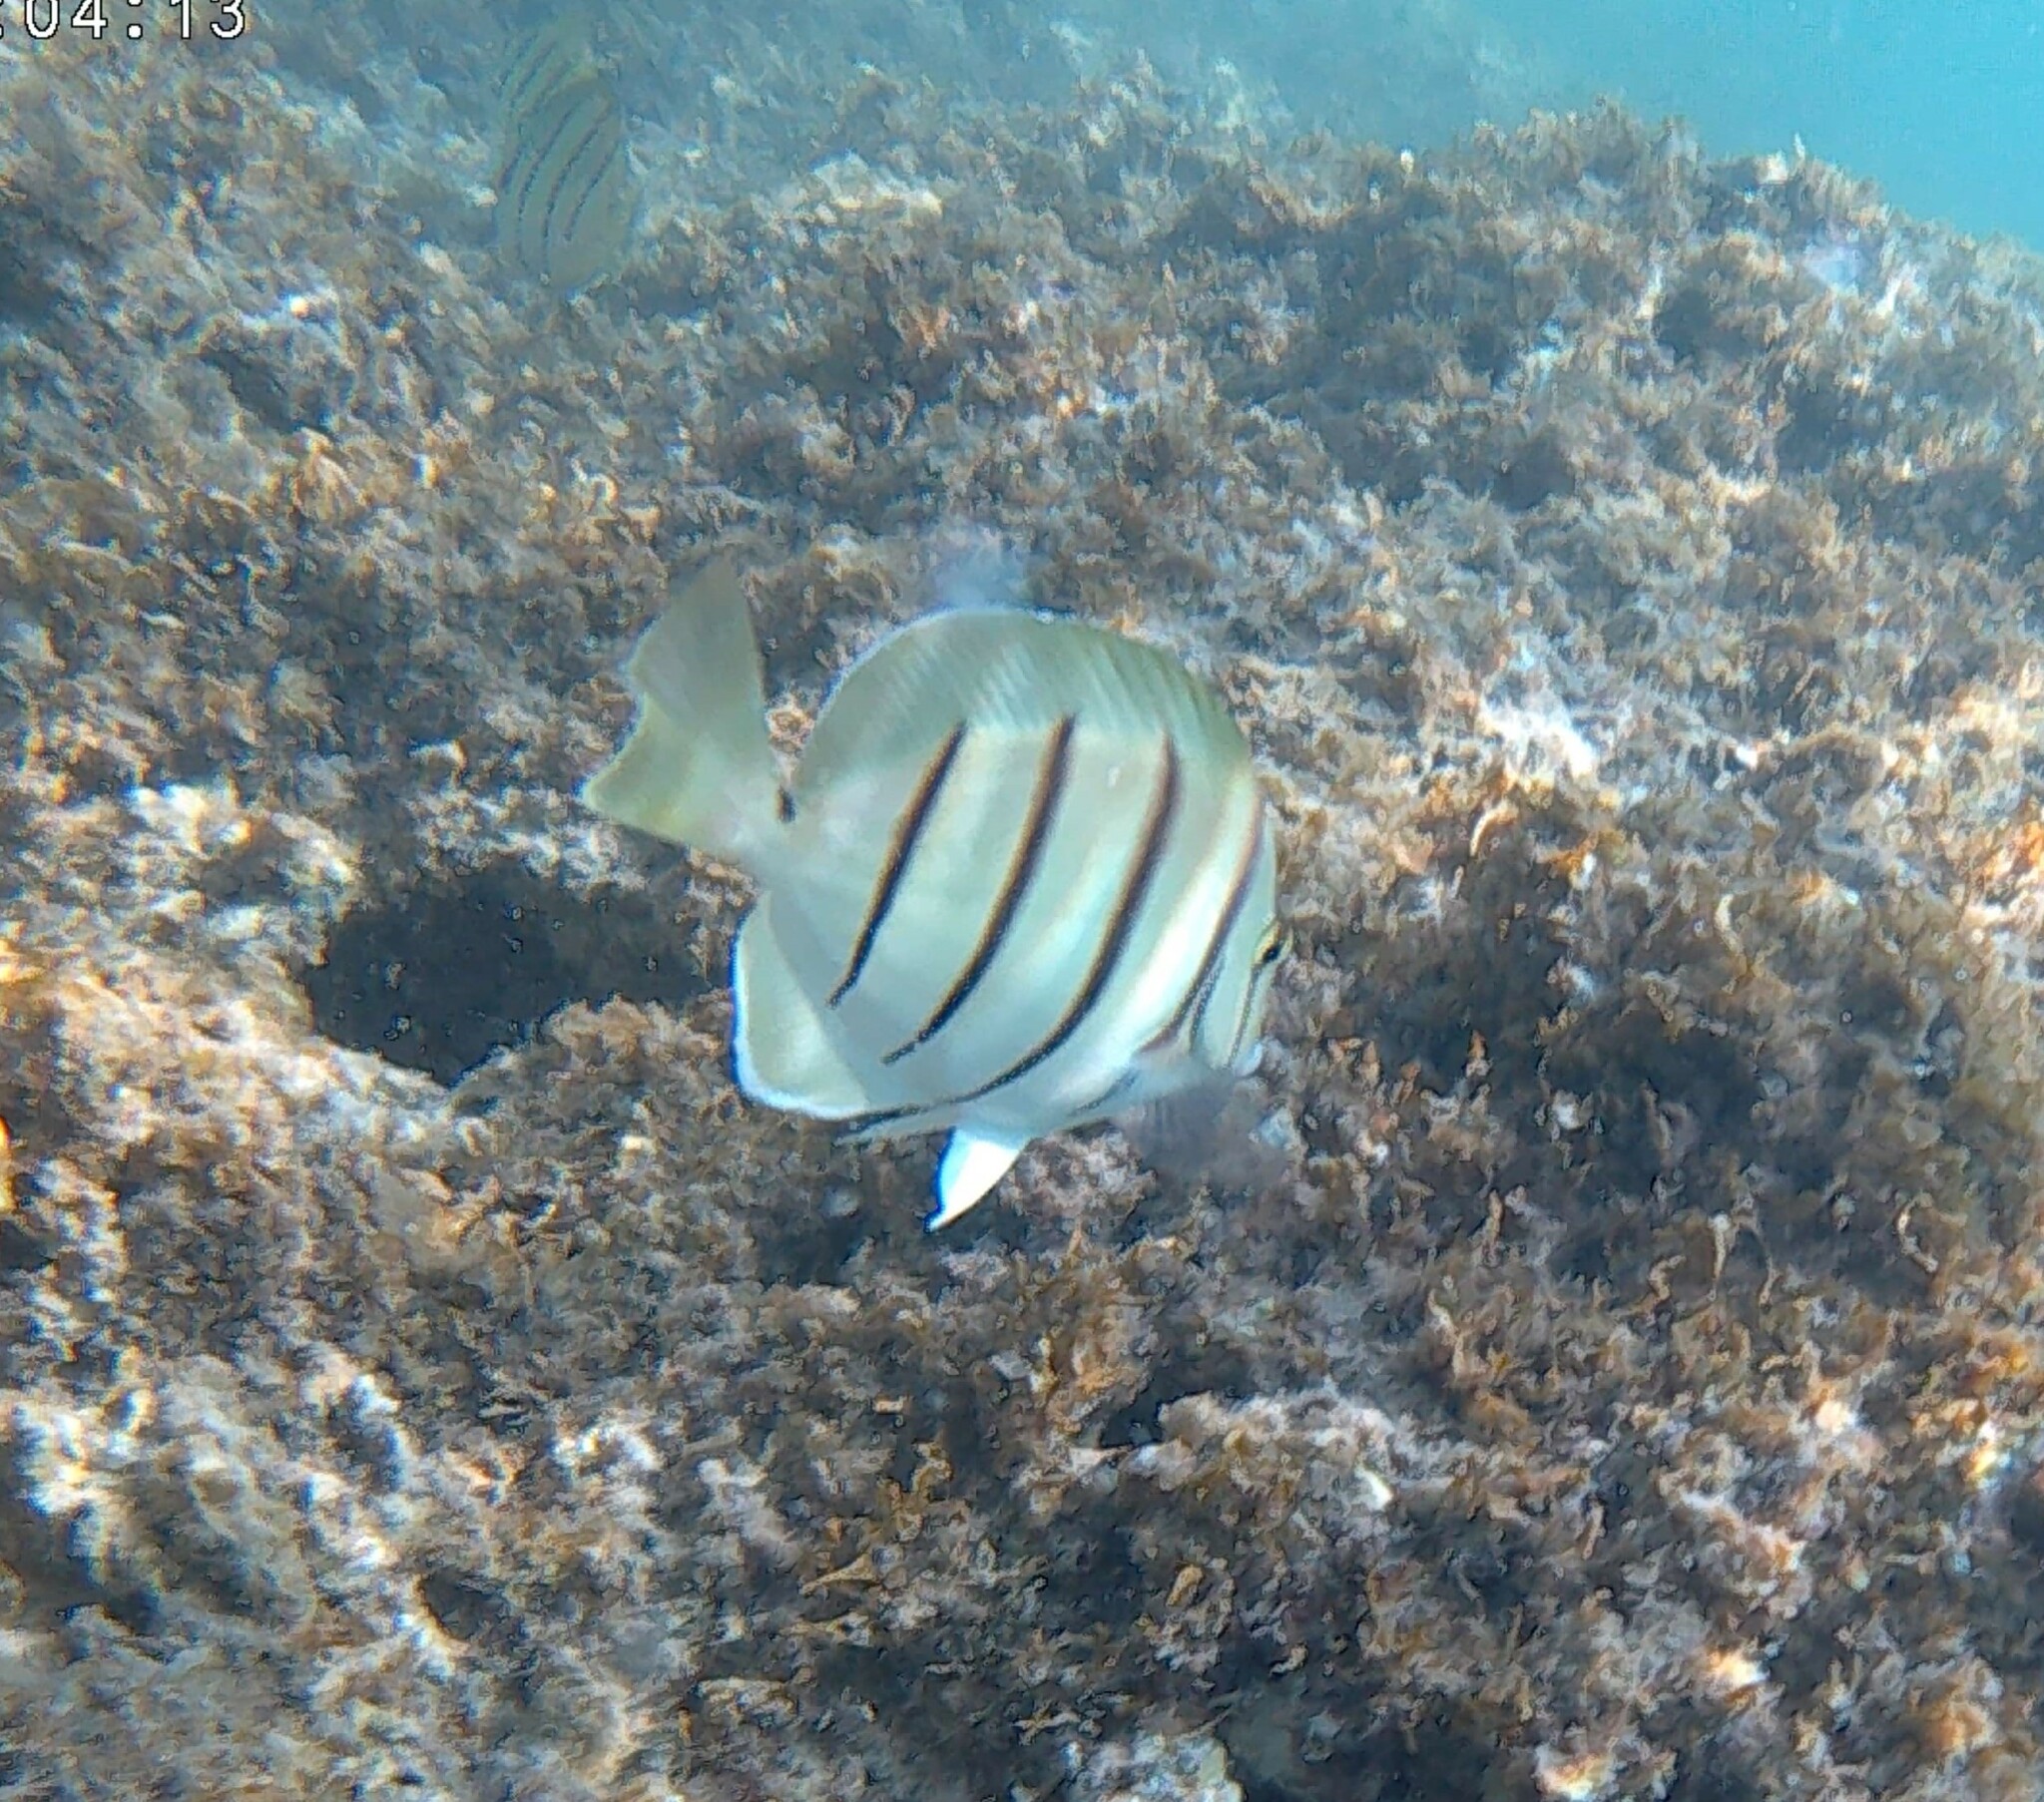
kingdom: Animalia
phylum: Chordata
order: Perciformes
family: Acanthuridae
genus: Acanthurus
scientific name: Acanthurus triostegus
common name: Convict surgeonfish
